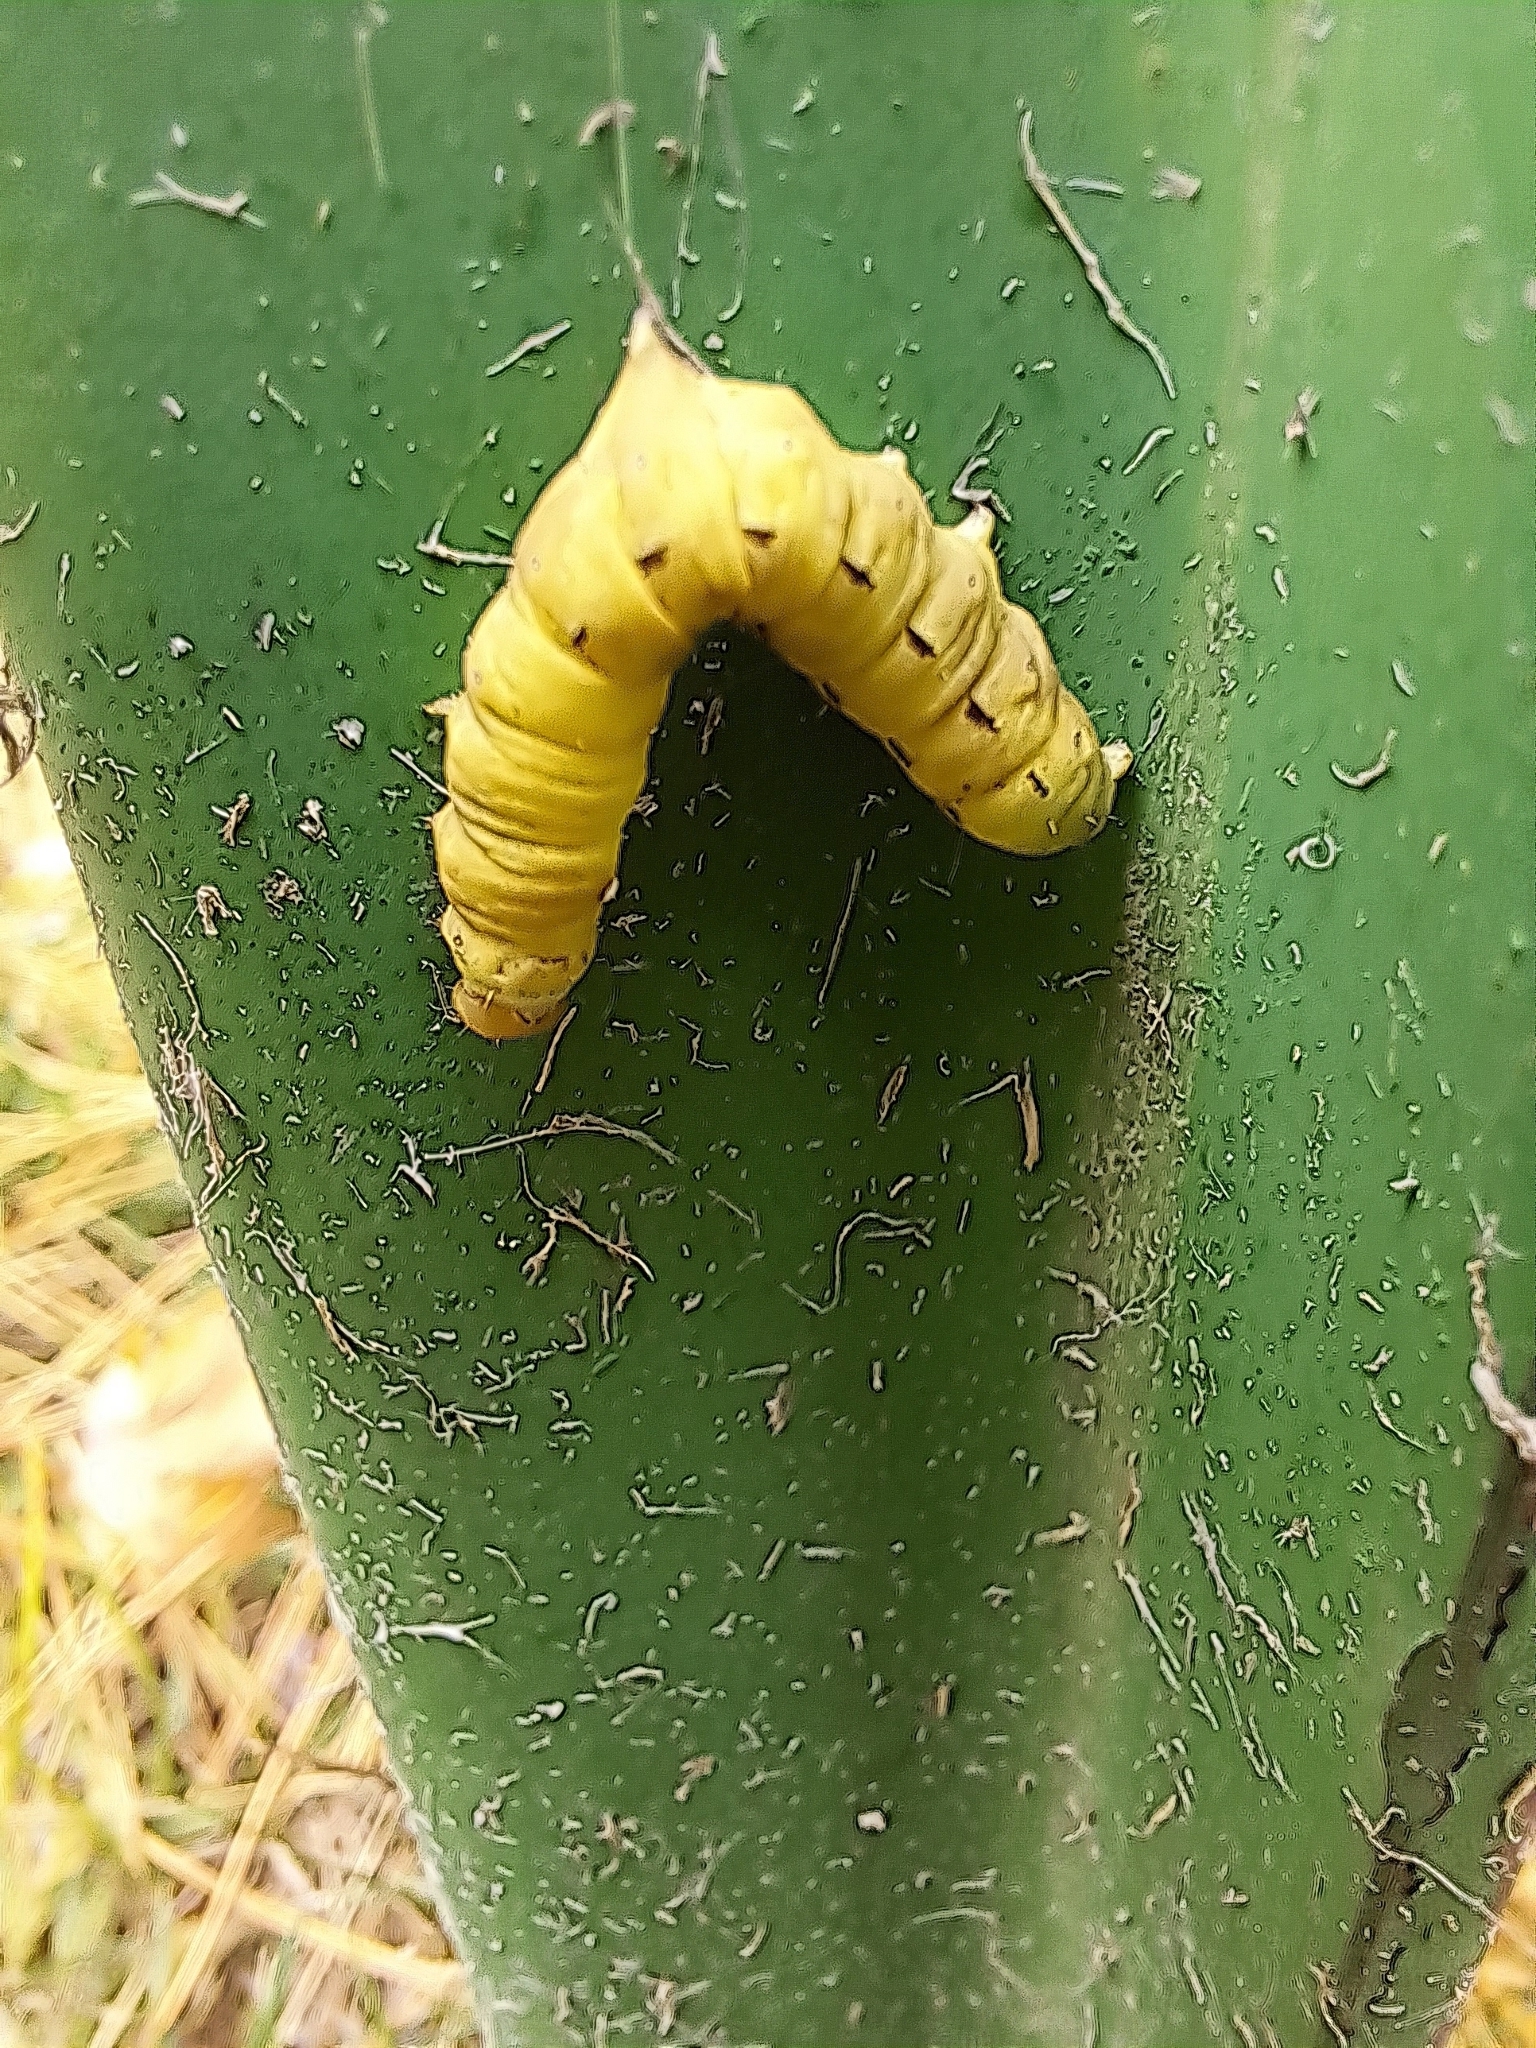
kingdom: Animalia
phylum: Arthropoda
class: Insecta
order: Lepidoptera
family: Noctuidae
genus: Noctua
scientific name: Noctua pronuba
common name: Large yellow underwing
